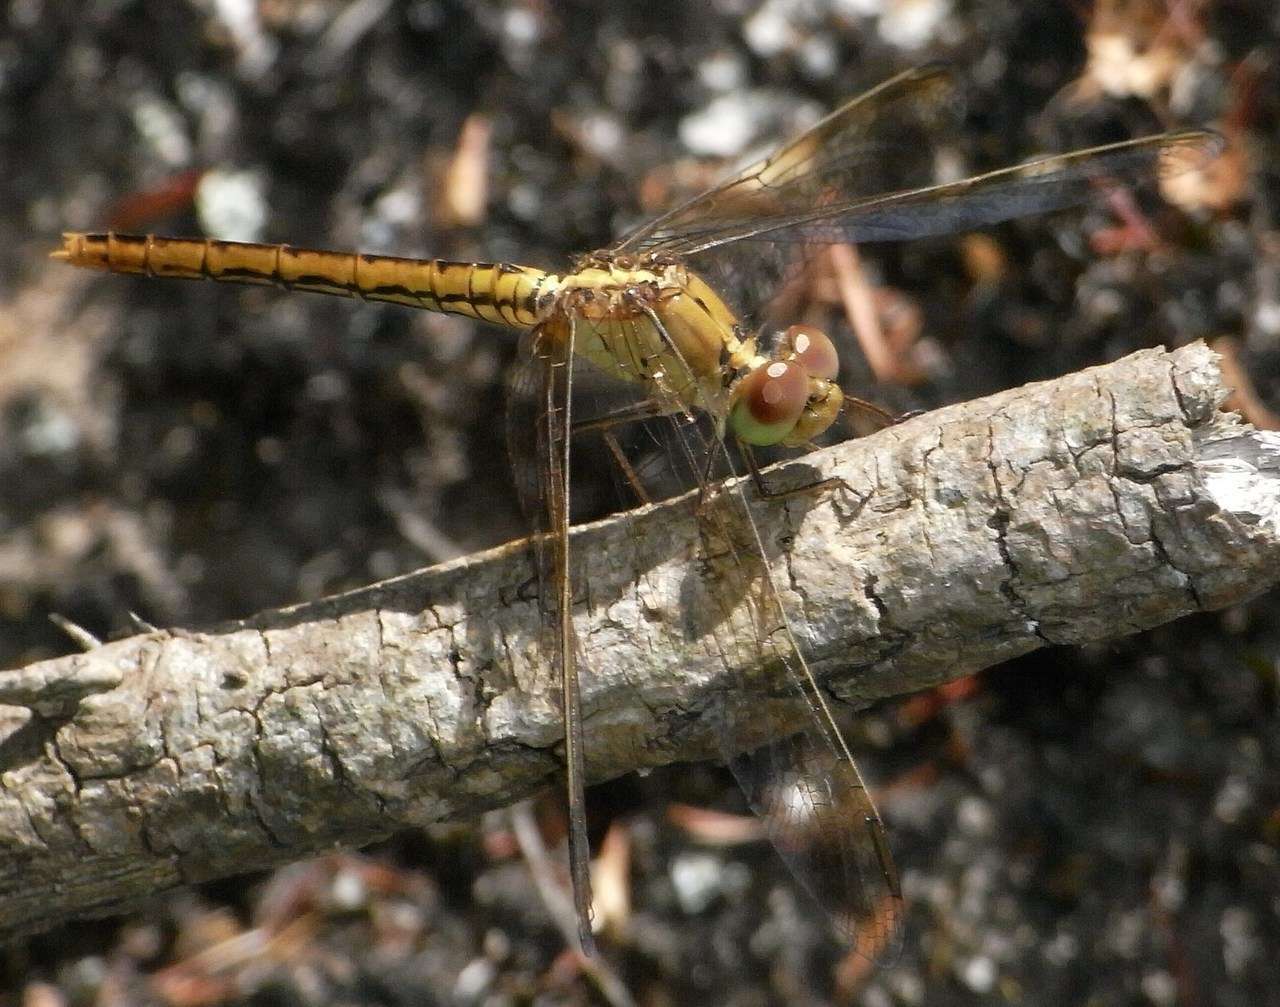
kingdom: Animalia
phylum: Arthropoda
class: Insecta
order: Odonata
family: Libellulidae
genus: Diplacodes
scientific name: Diplacodes haematodes
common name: Scarlet percher
